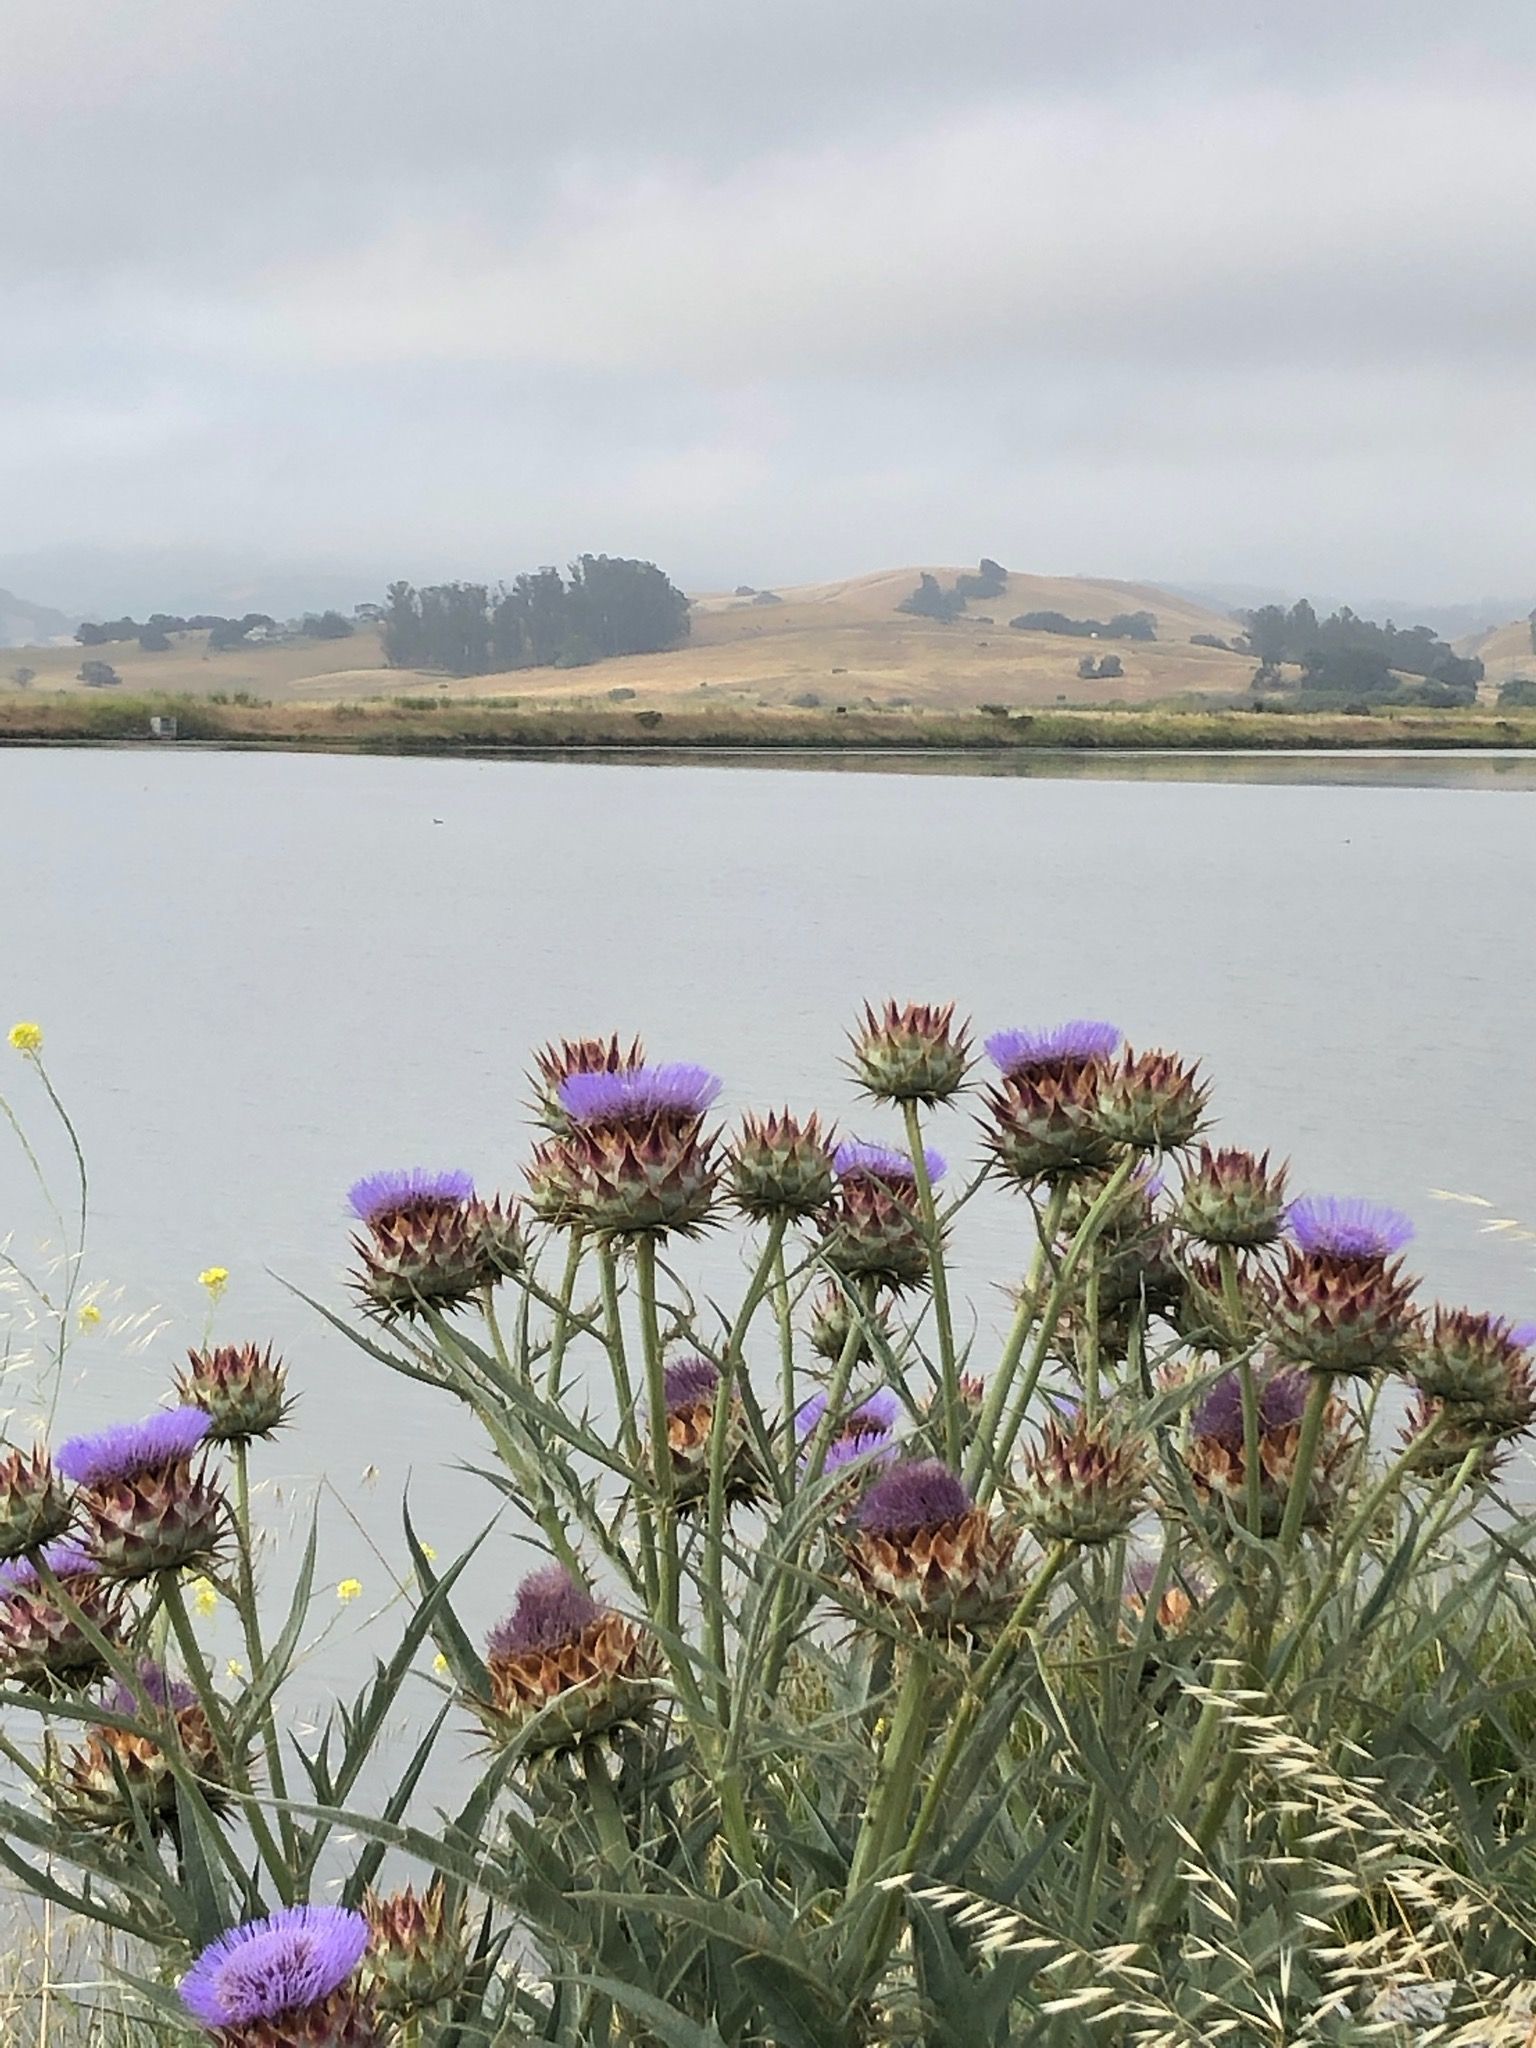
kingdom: Plantae
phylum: Tracheophyta
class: Magnoliopsida
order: Asterales
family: Asteraceae
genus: Cynara
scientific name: Cynara cardunculus
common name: Globe artichoke
